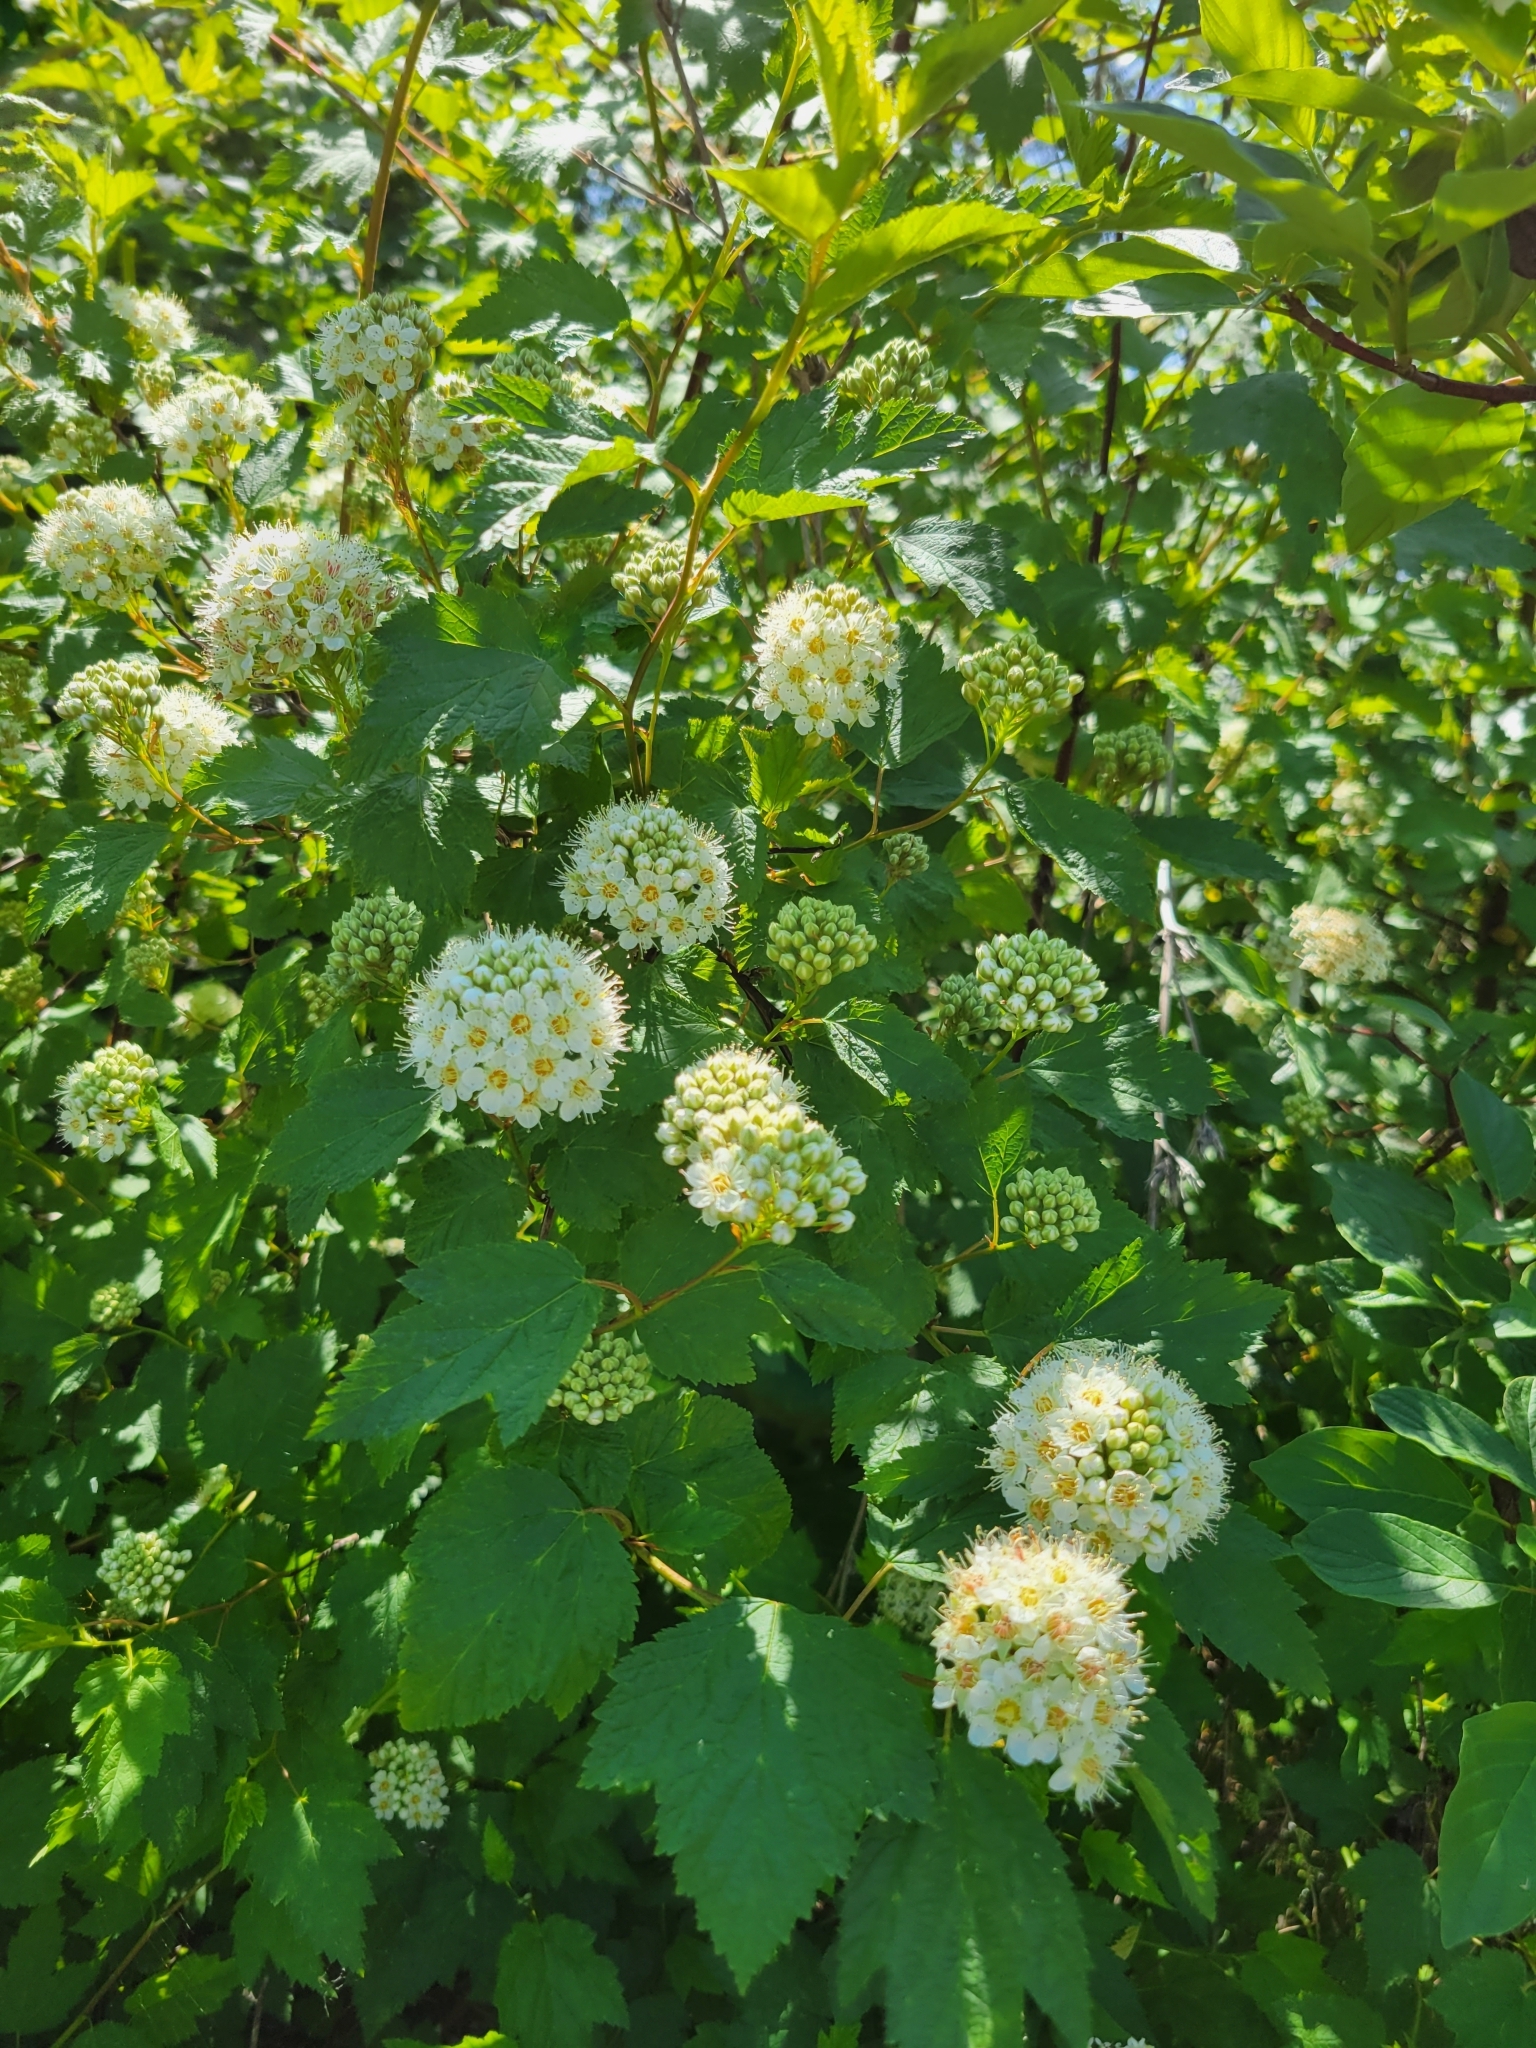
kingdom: Plantae
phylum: Tracheophyta
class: Magnoliopsida
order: Rosales
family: Rosaceae
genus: Physocarpus
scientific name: Physocarpus capitatus
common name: Pacific ninebark
